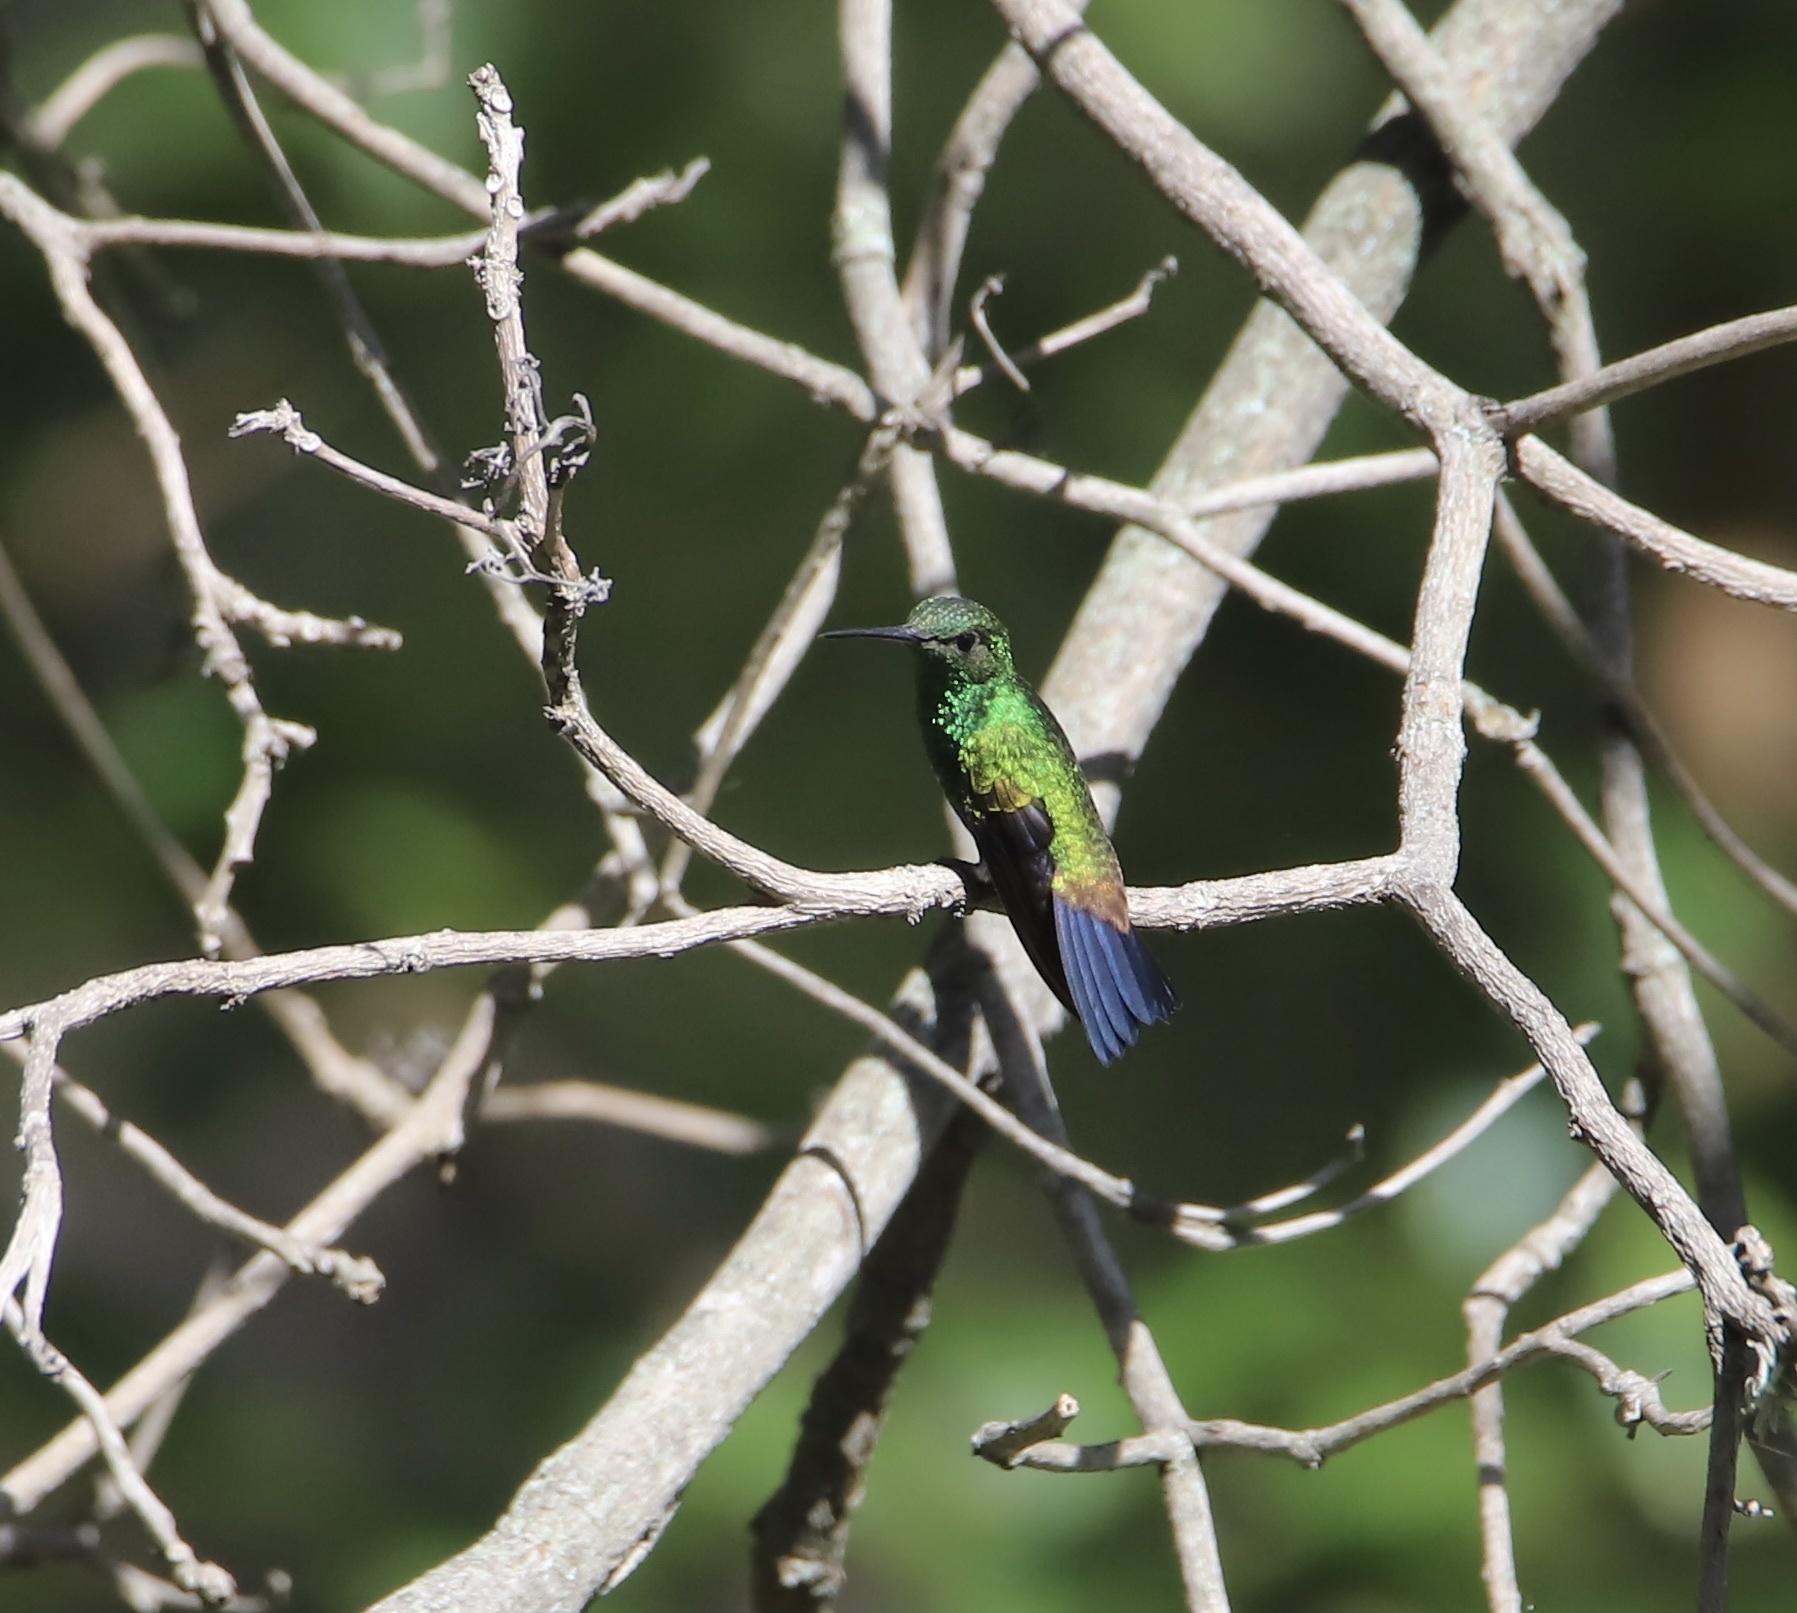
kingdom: Animalia
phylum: Chordata
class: Aves
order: Apodiformes
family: Trochilidae
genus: Saucerottia
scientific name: Saucerottia tobaci
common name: Copper-rumped hummingbird
